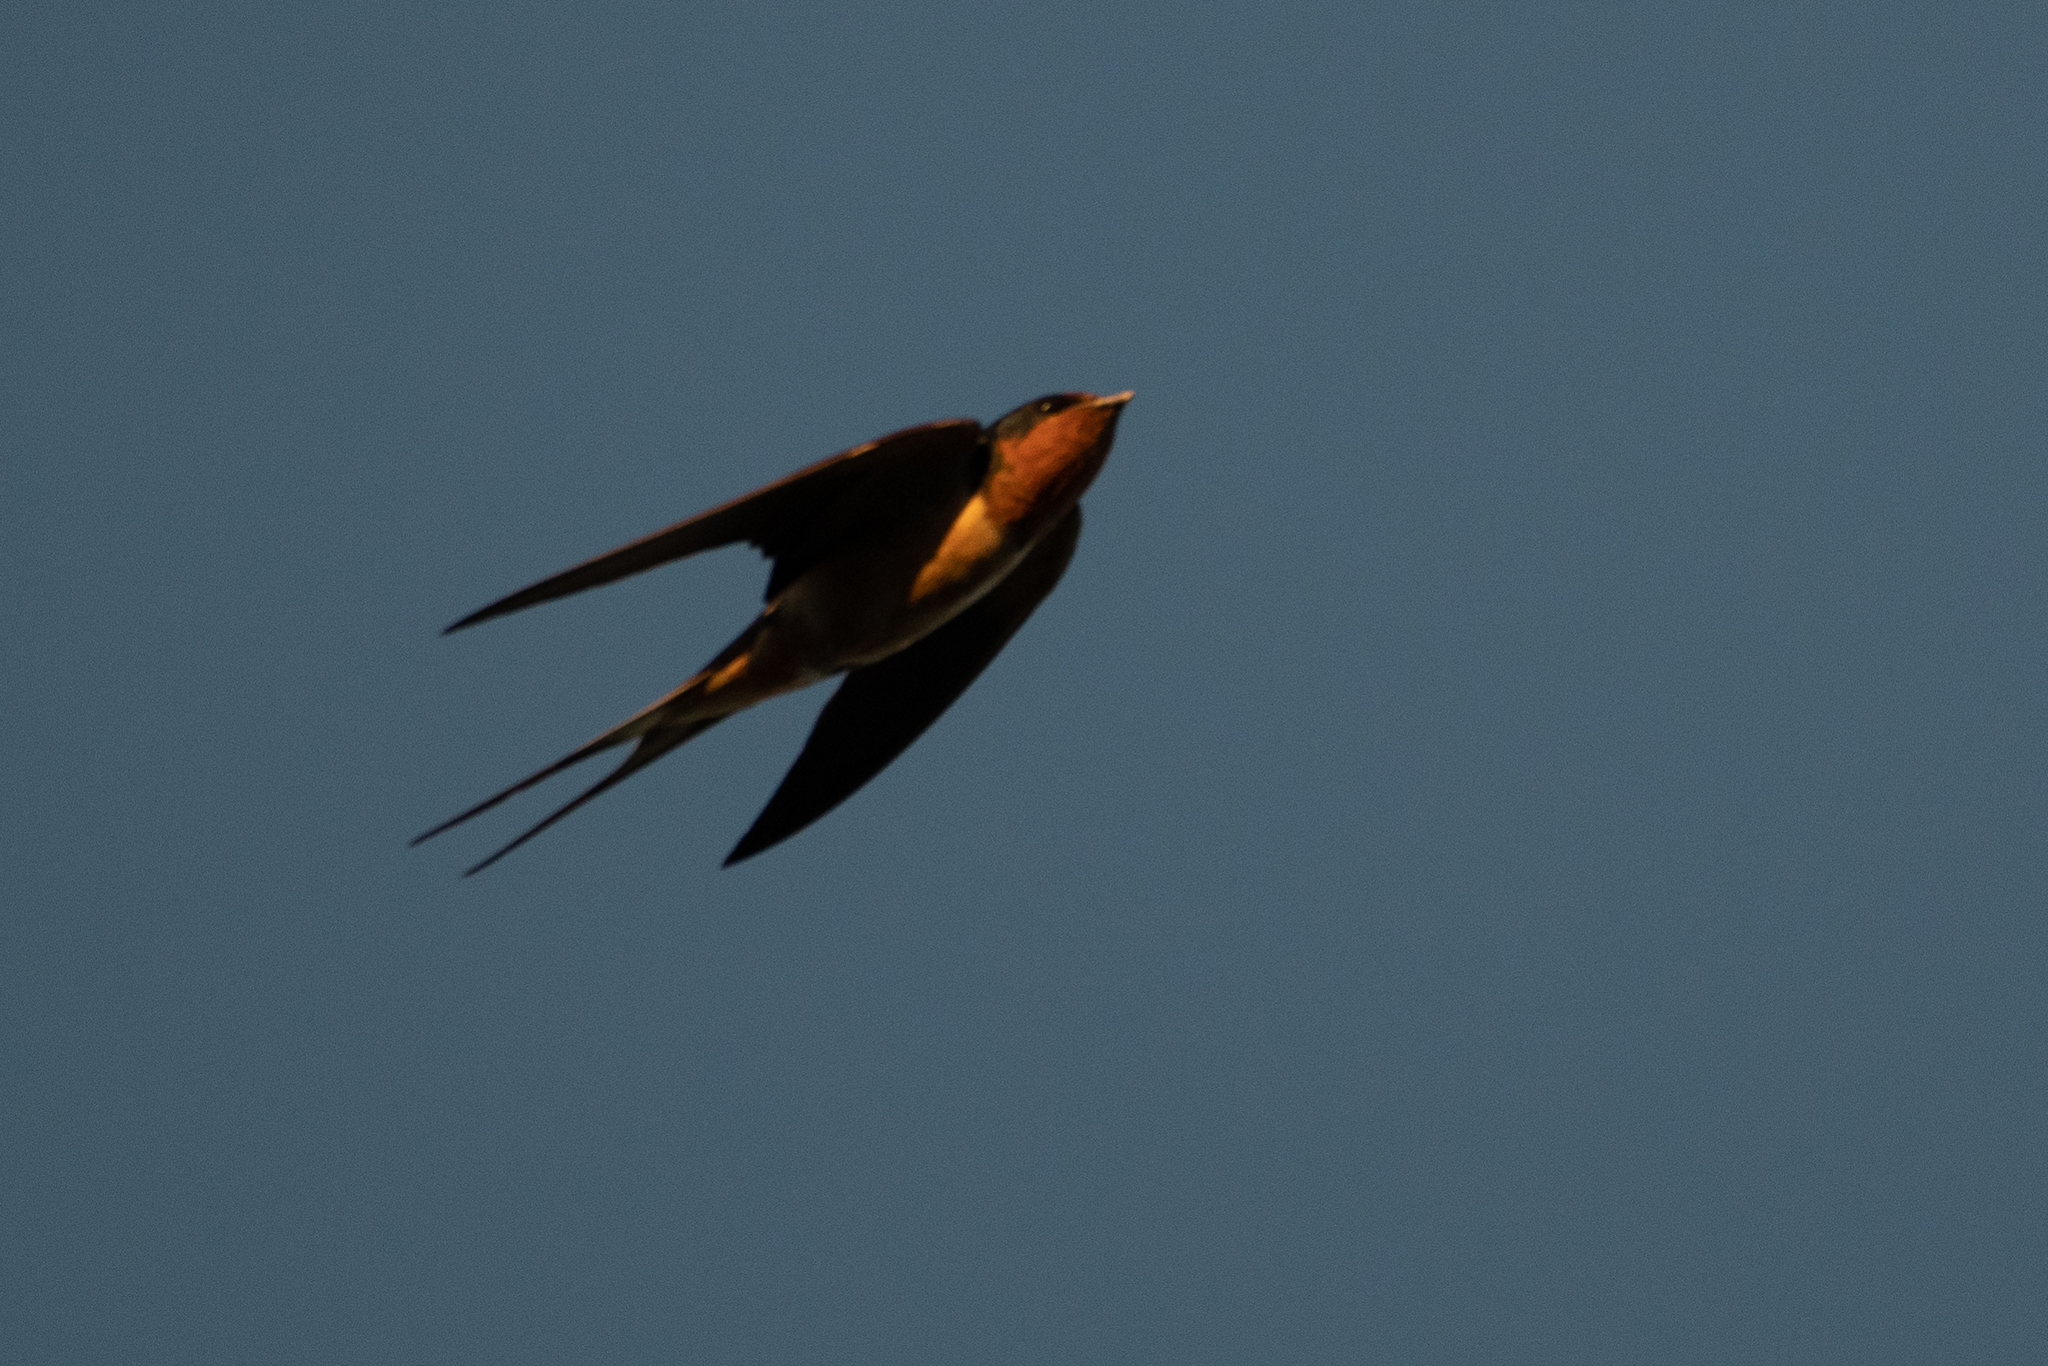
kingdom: Animalia
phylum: Chordata
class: Aves
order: Passeriformes
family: Hirundinidae
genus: Hirundo
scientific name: Hirundo rustica
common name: Barn swallow
